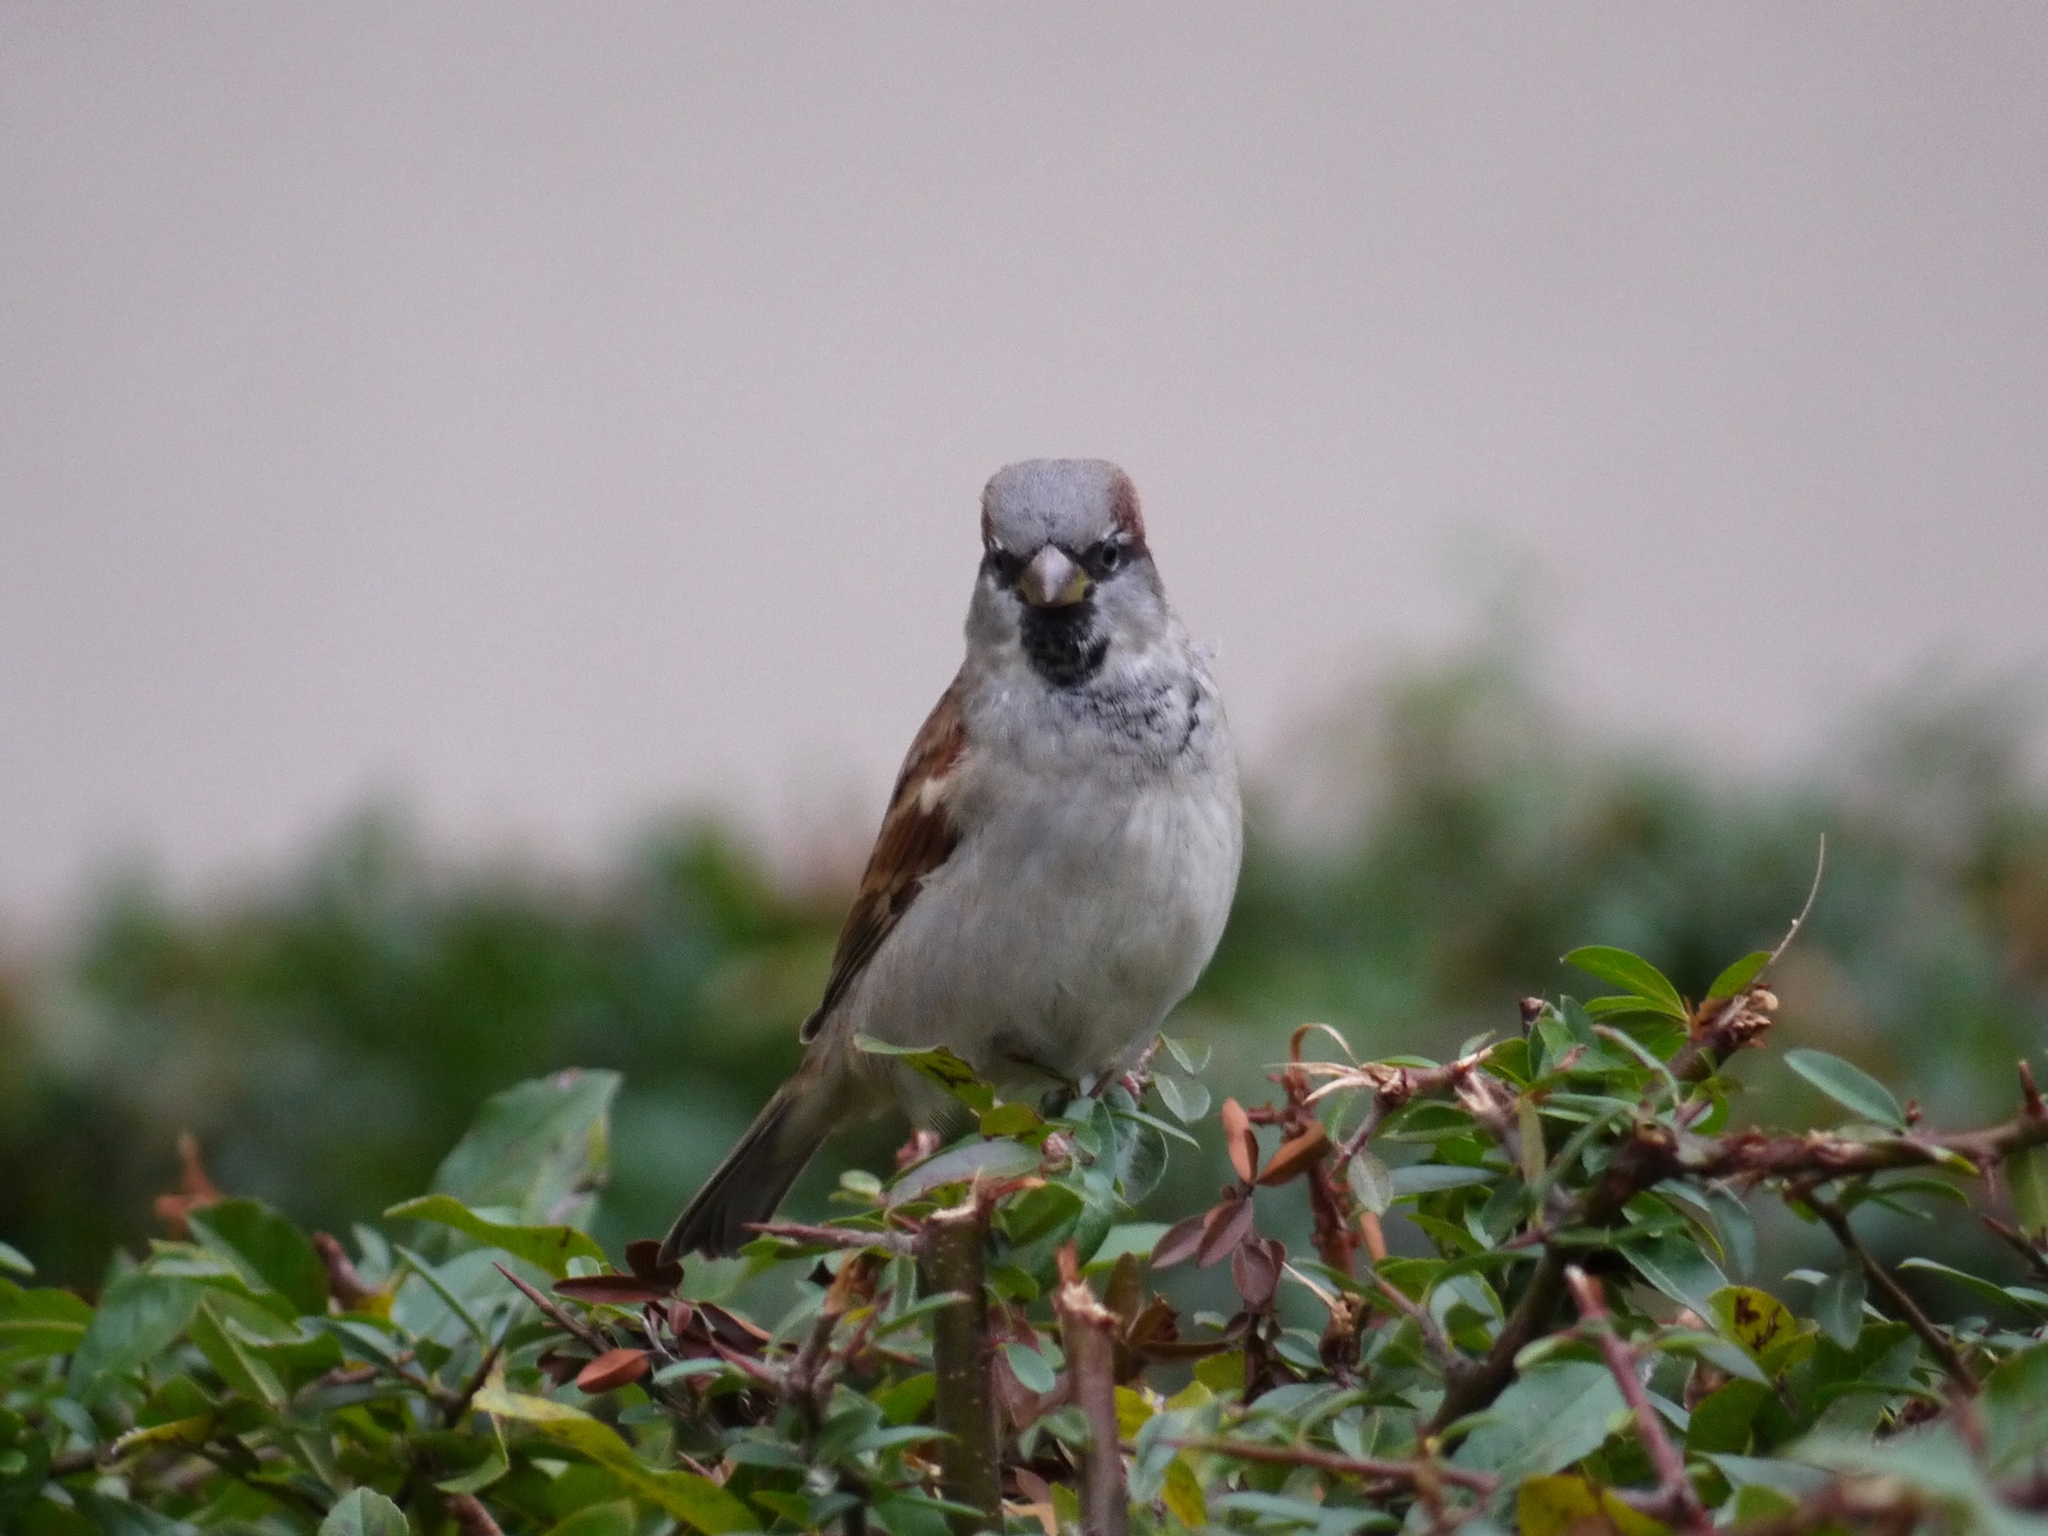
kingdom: Animalia
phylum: Chordata
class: Aves
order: Passeriformes
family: Passeridae
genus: Passer
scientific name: Passer domesticus
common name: House sparrow
